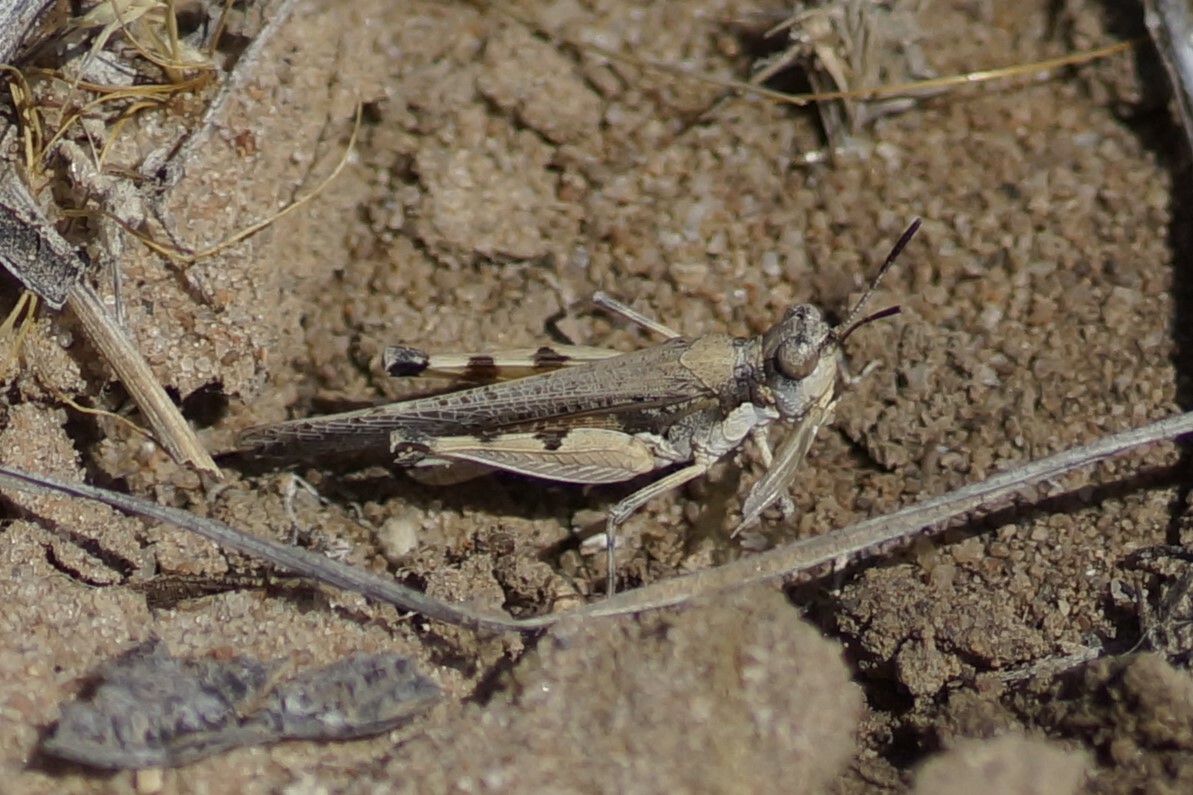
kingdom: Animalia
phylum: Arthropoda
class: Insecta
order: Orthoptera
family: Acrididae
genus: Pycnostictus
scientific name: Pycnostictus seriatus
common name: Common bandwing
